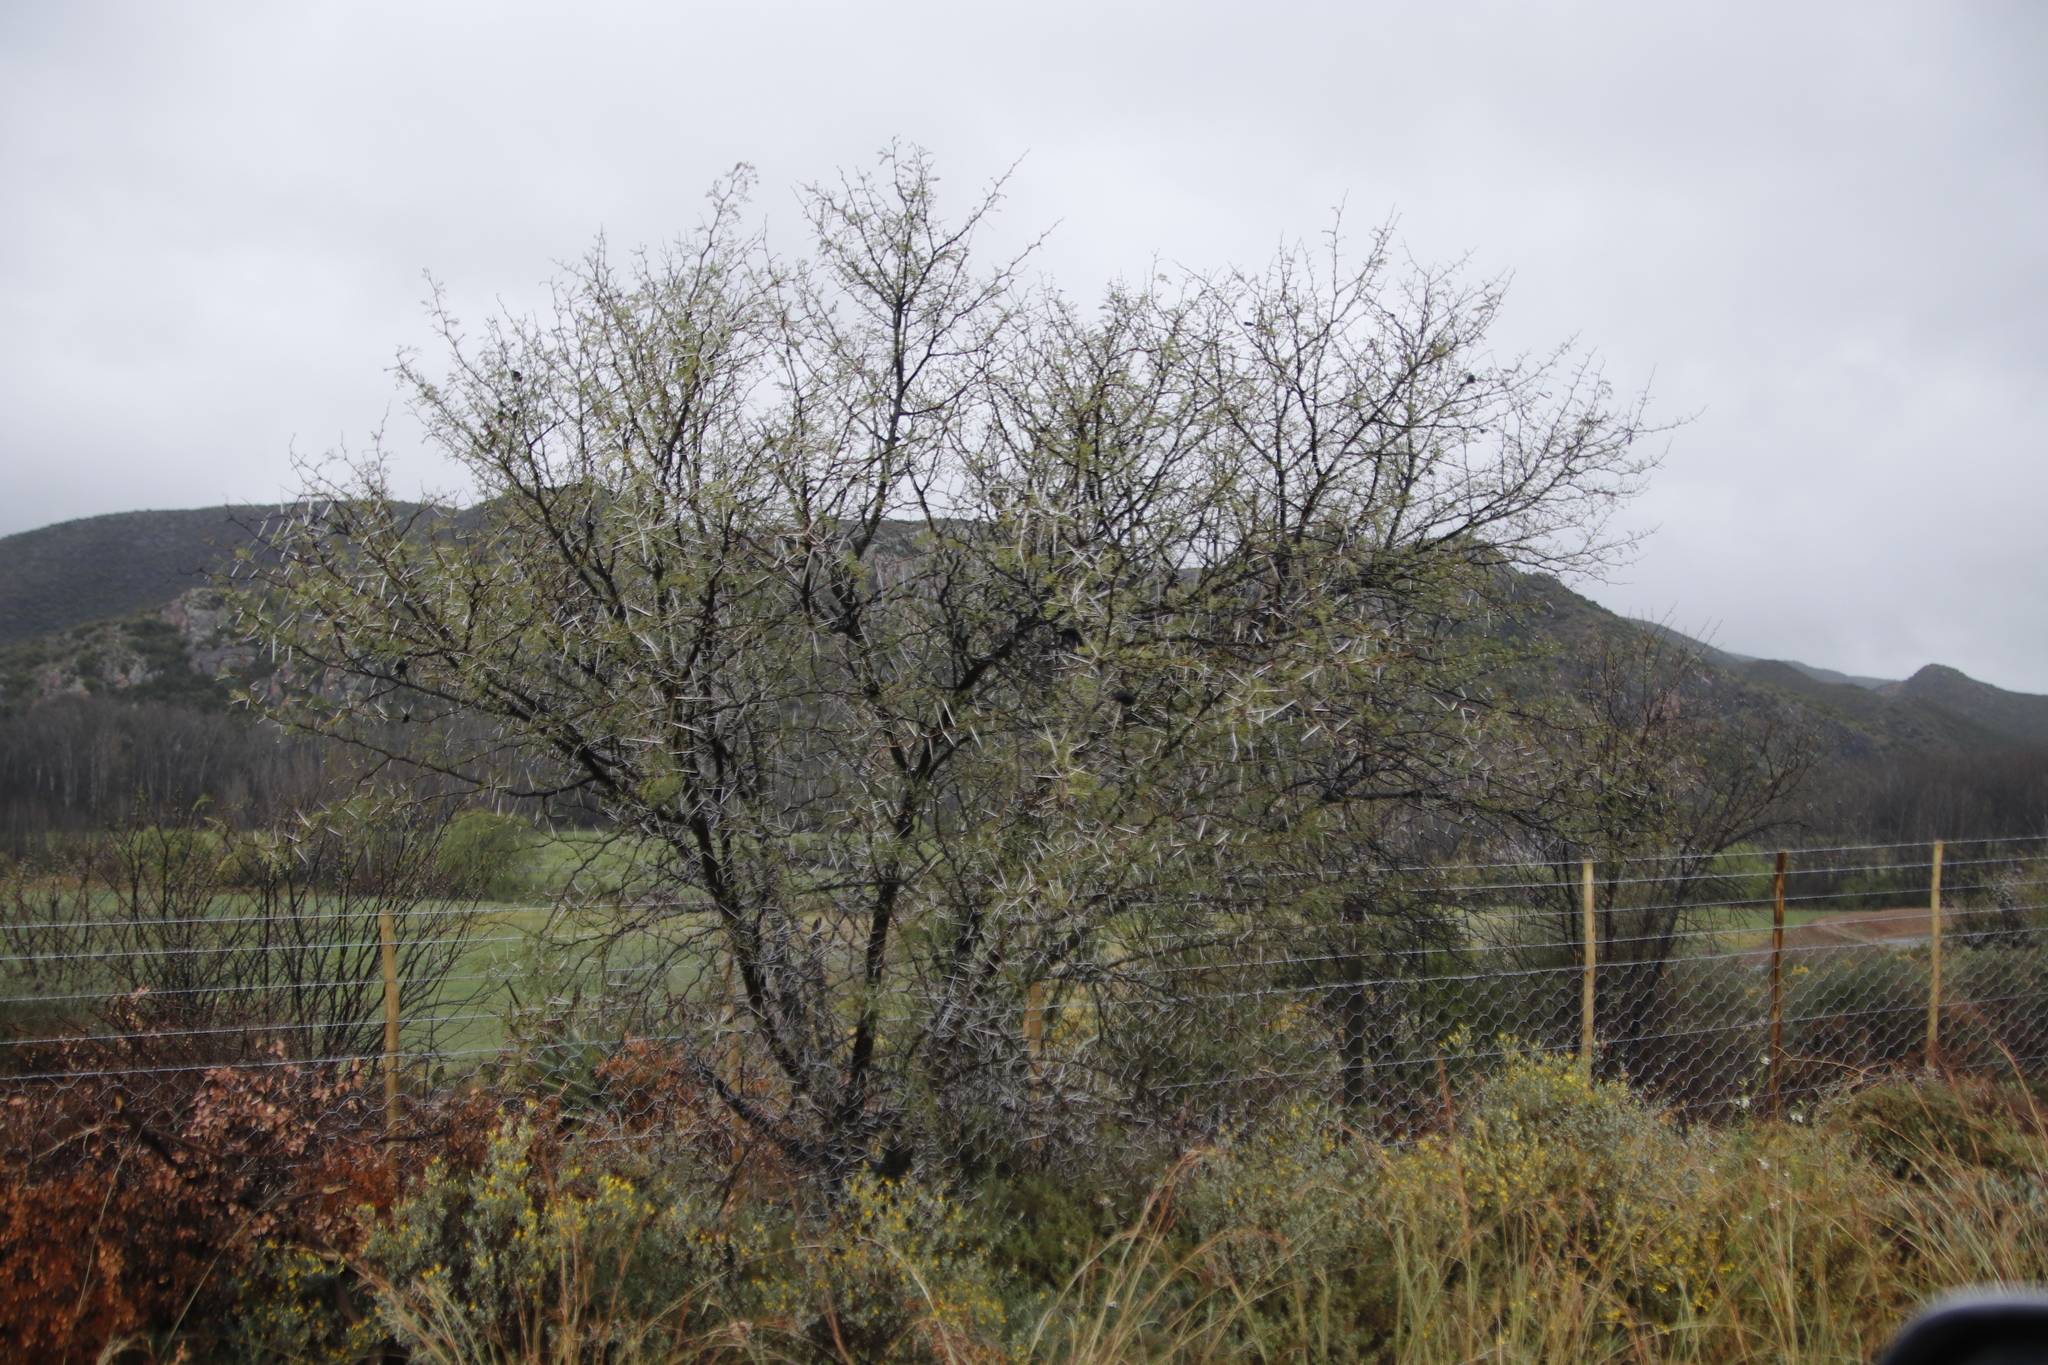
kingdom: Plantae
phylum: Tracheophyta
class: Magnoliopsida
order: Fabales
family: Fabaceae
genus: Vachellia
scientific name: Vachellia karroo
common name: Sweet thorn
